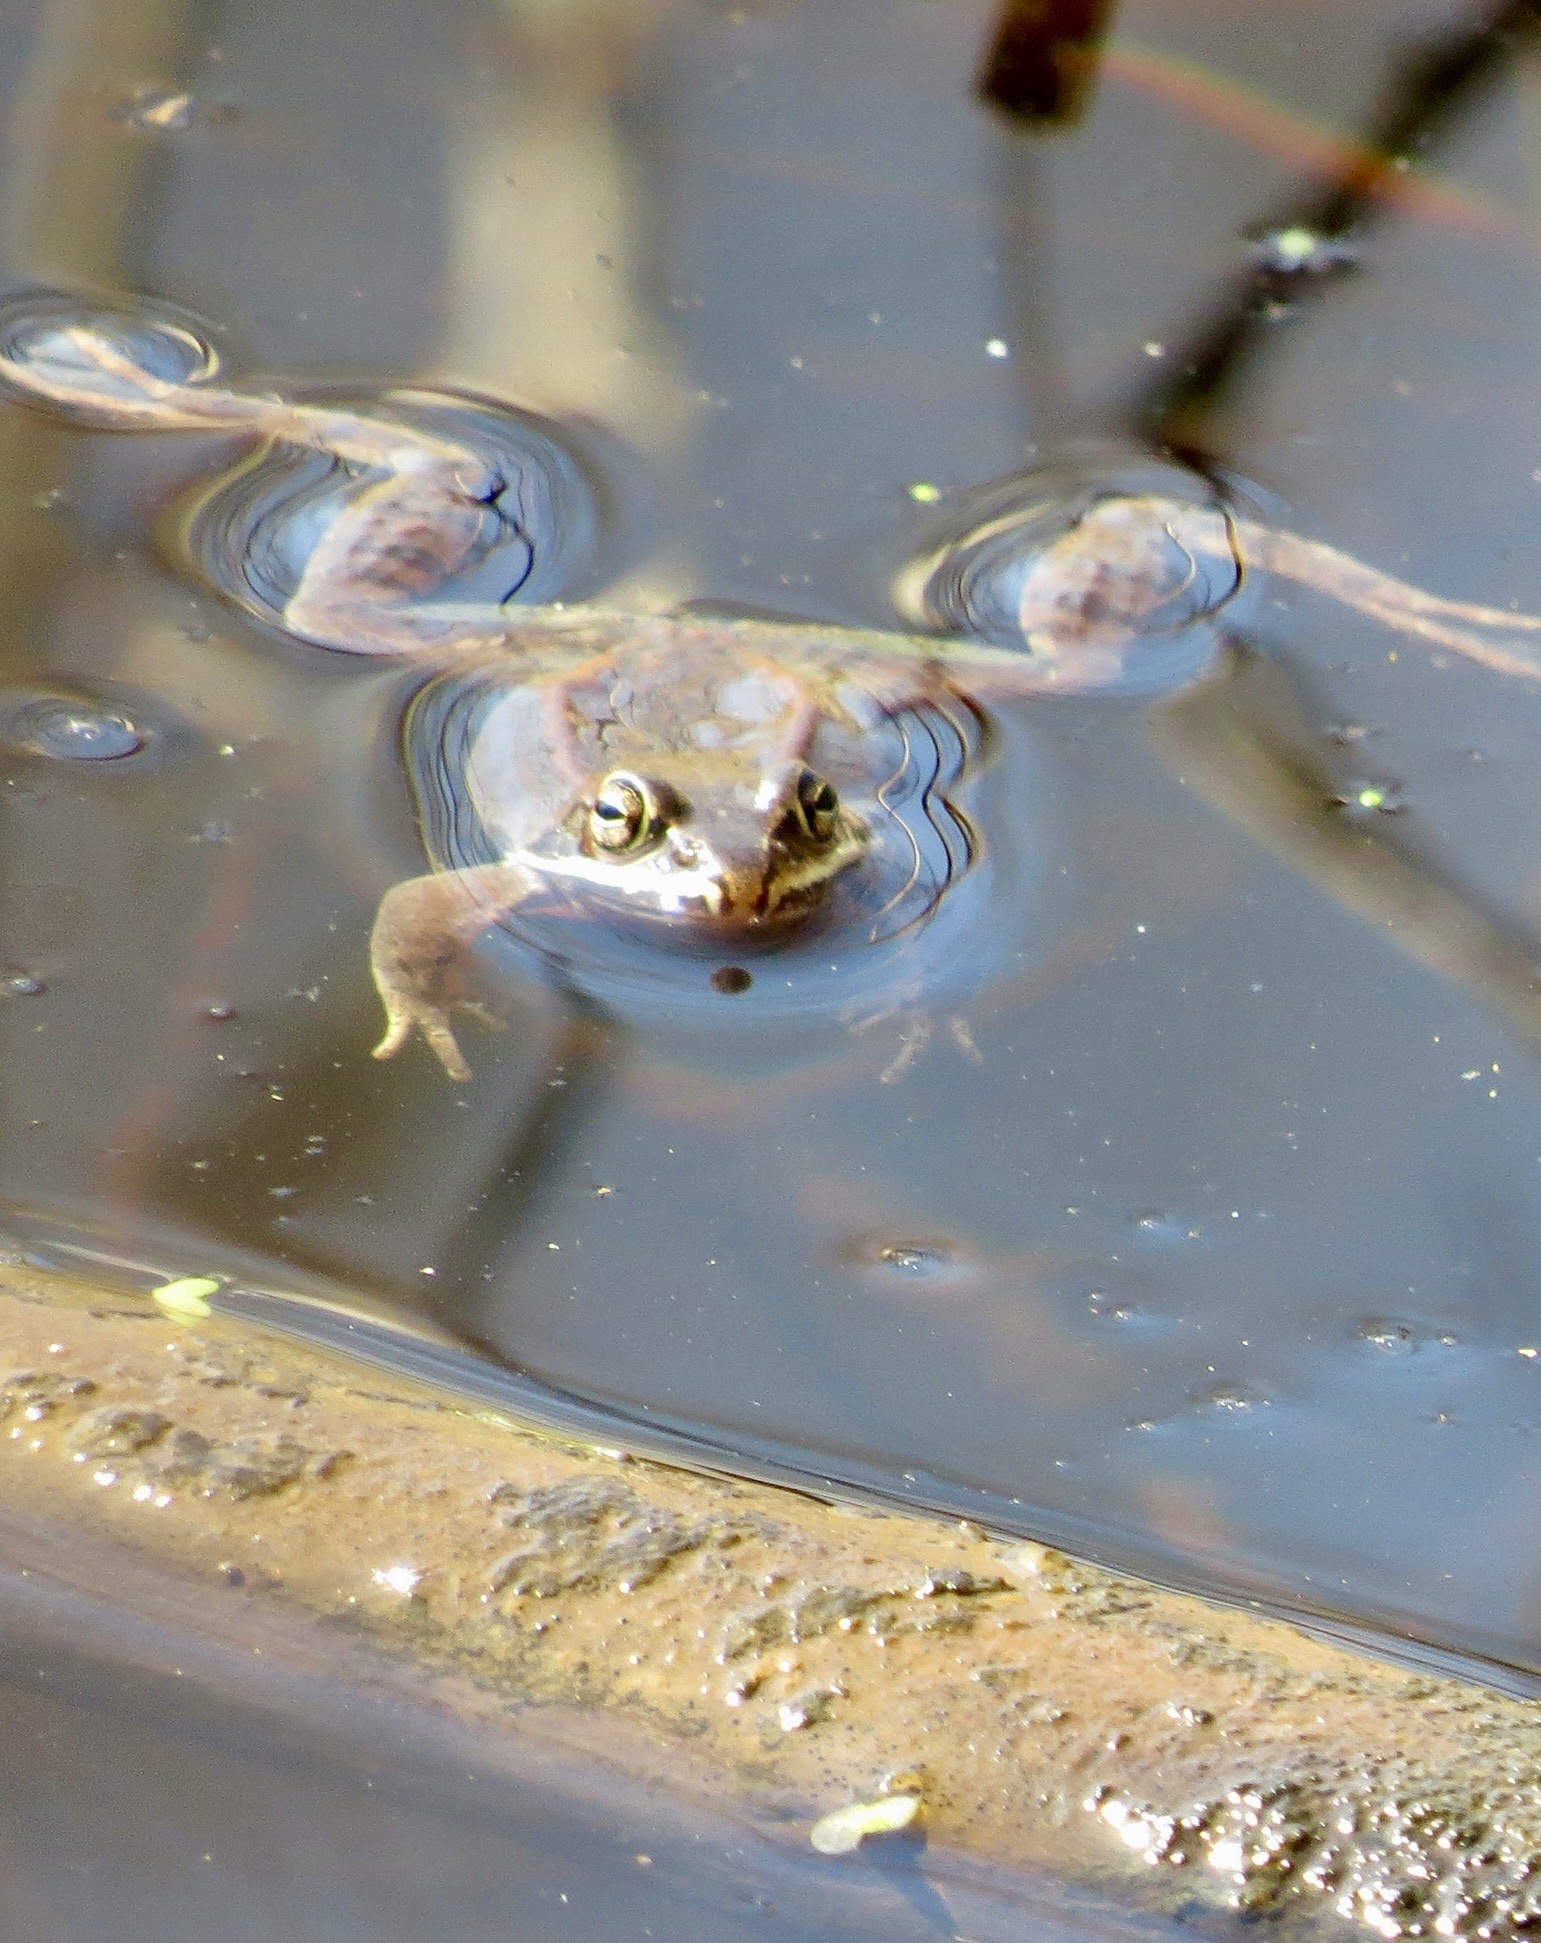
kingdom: Animalia
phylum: Chordata
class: Amphibia
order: Anura
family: Ranidae
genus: Lithobates
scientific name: Lithobates sylvaticus
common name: Wood frog
